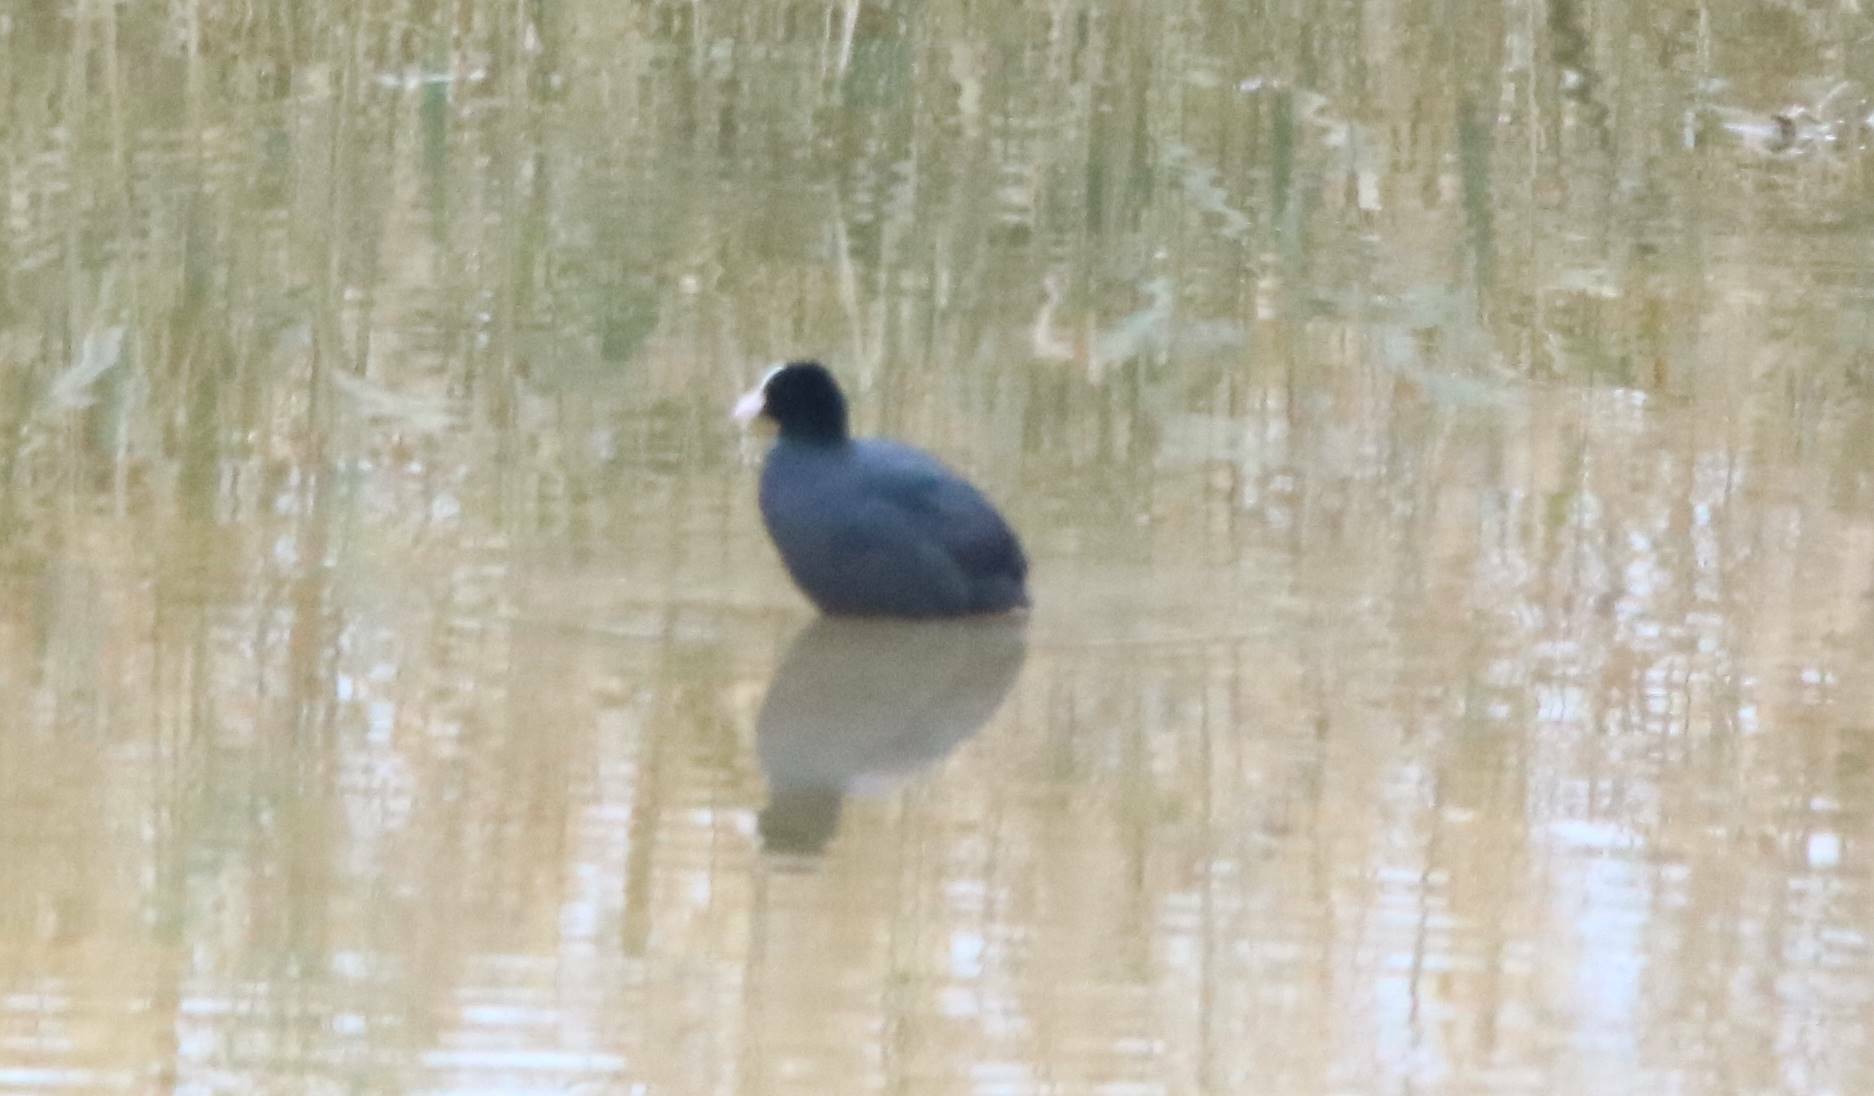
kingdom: Animalia
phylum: Chordata
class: Aves
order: Gruiformes
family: Rallidae
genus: Fulica
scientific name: Fulica atra
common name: Eurasian coot
